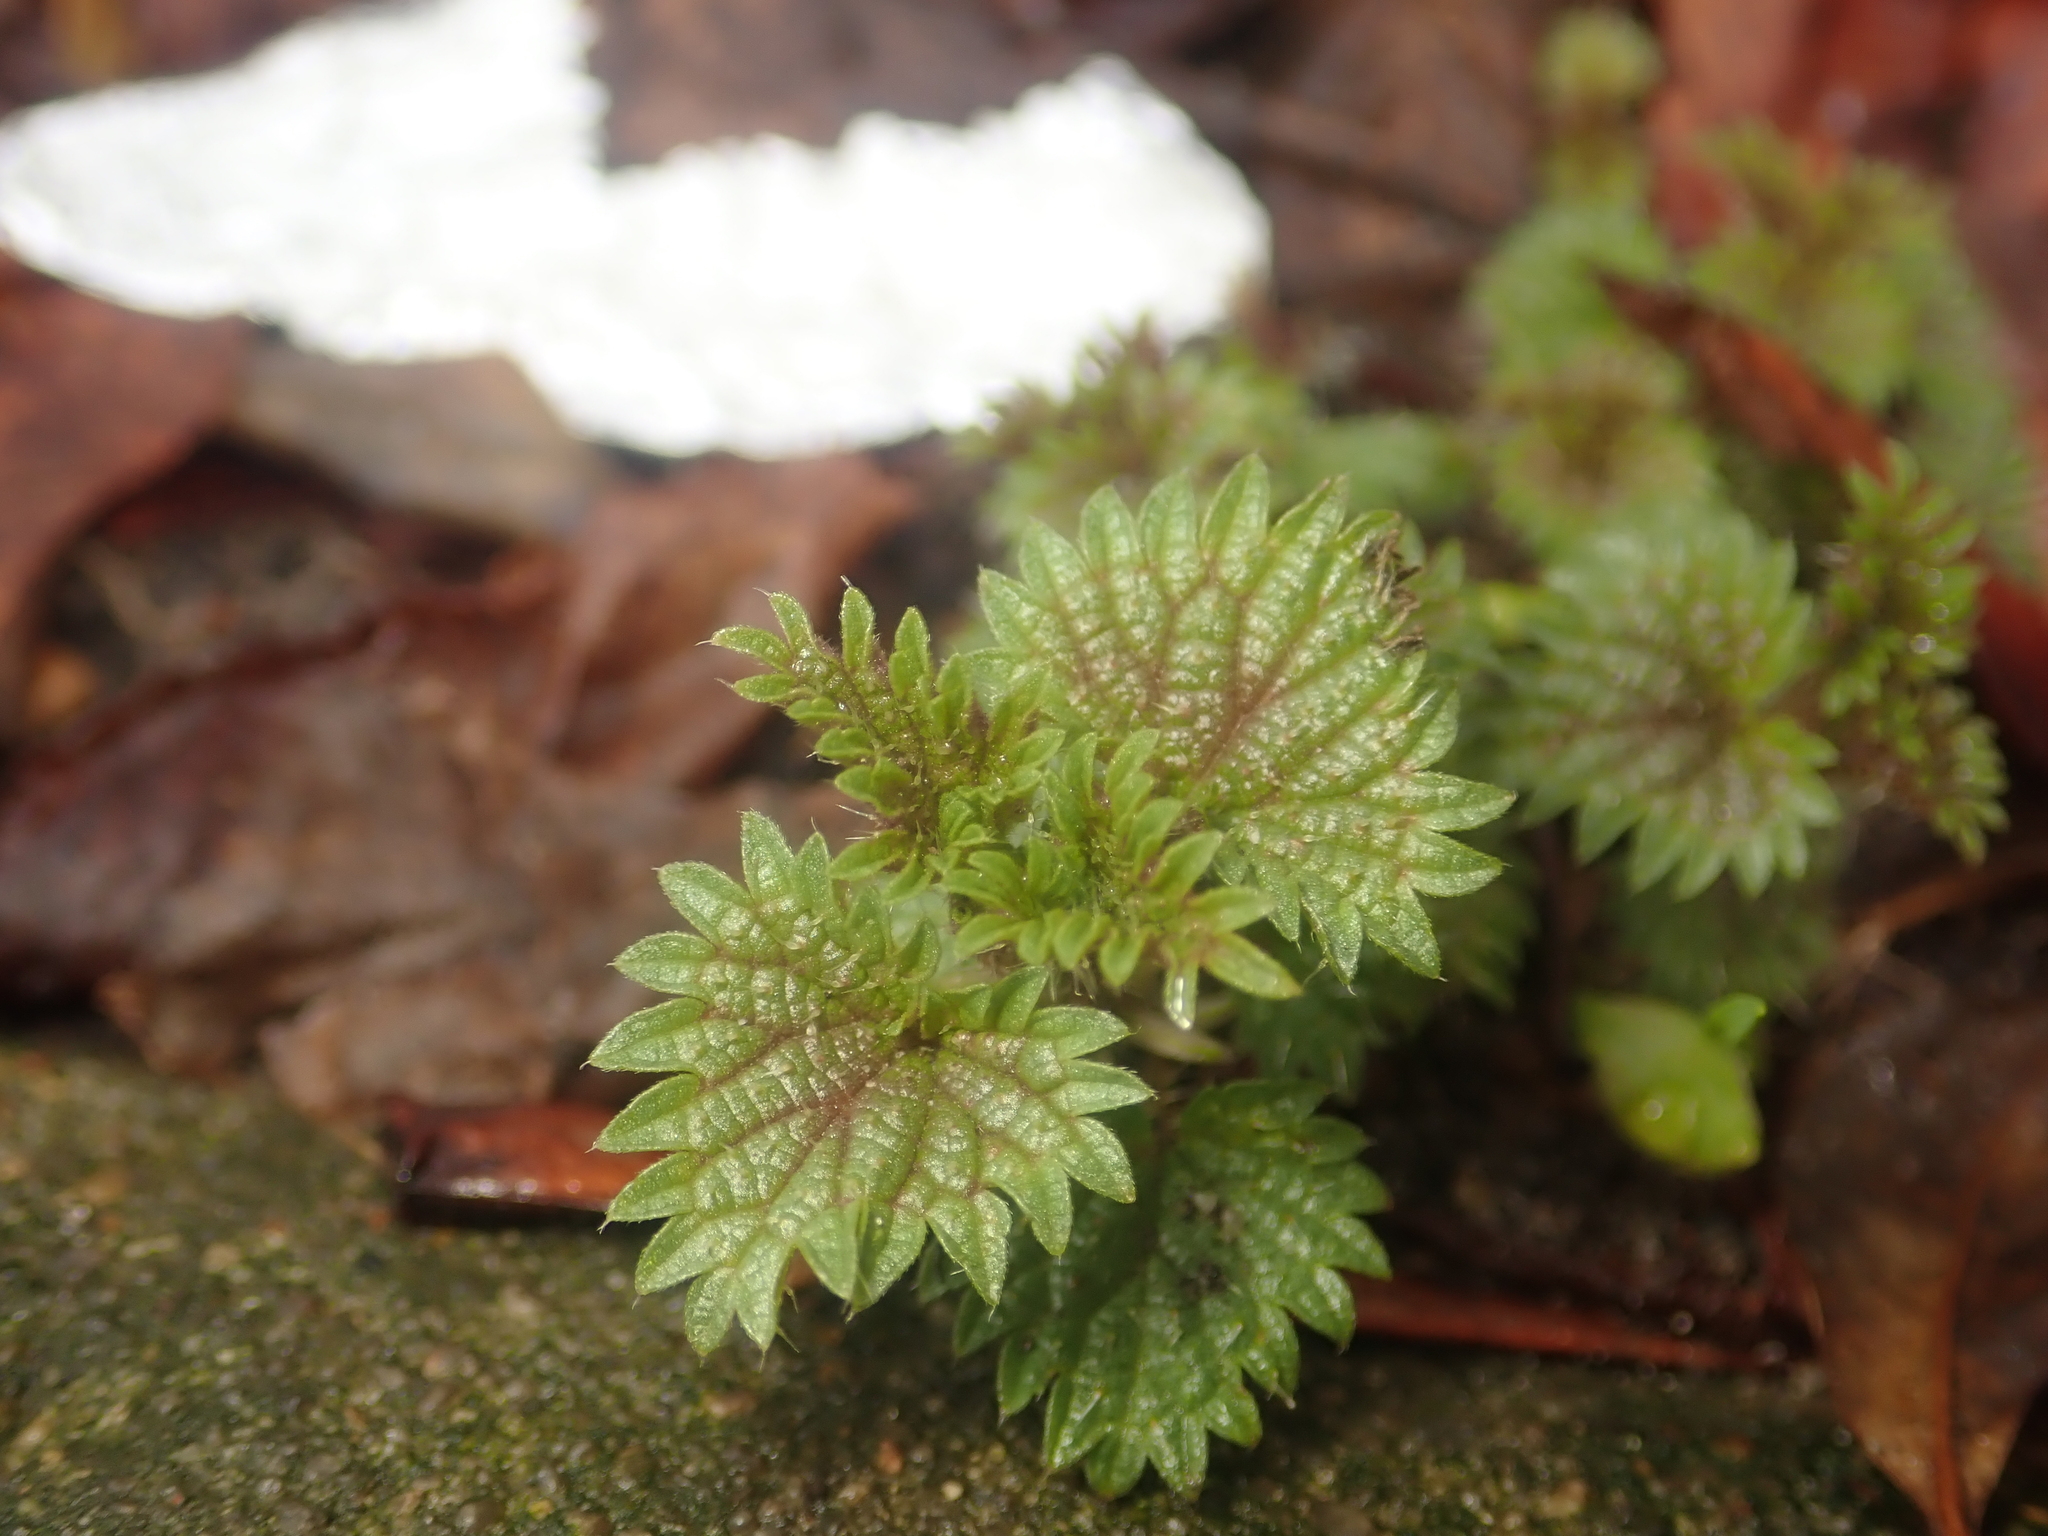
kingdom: Plantae
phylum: Tracheophyta
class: Magnoliopsida
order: Rosales
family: Urticaceae
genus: Urtica
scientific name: Urtica dioica
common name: Common nettle
